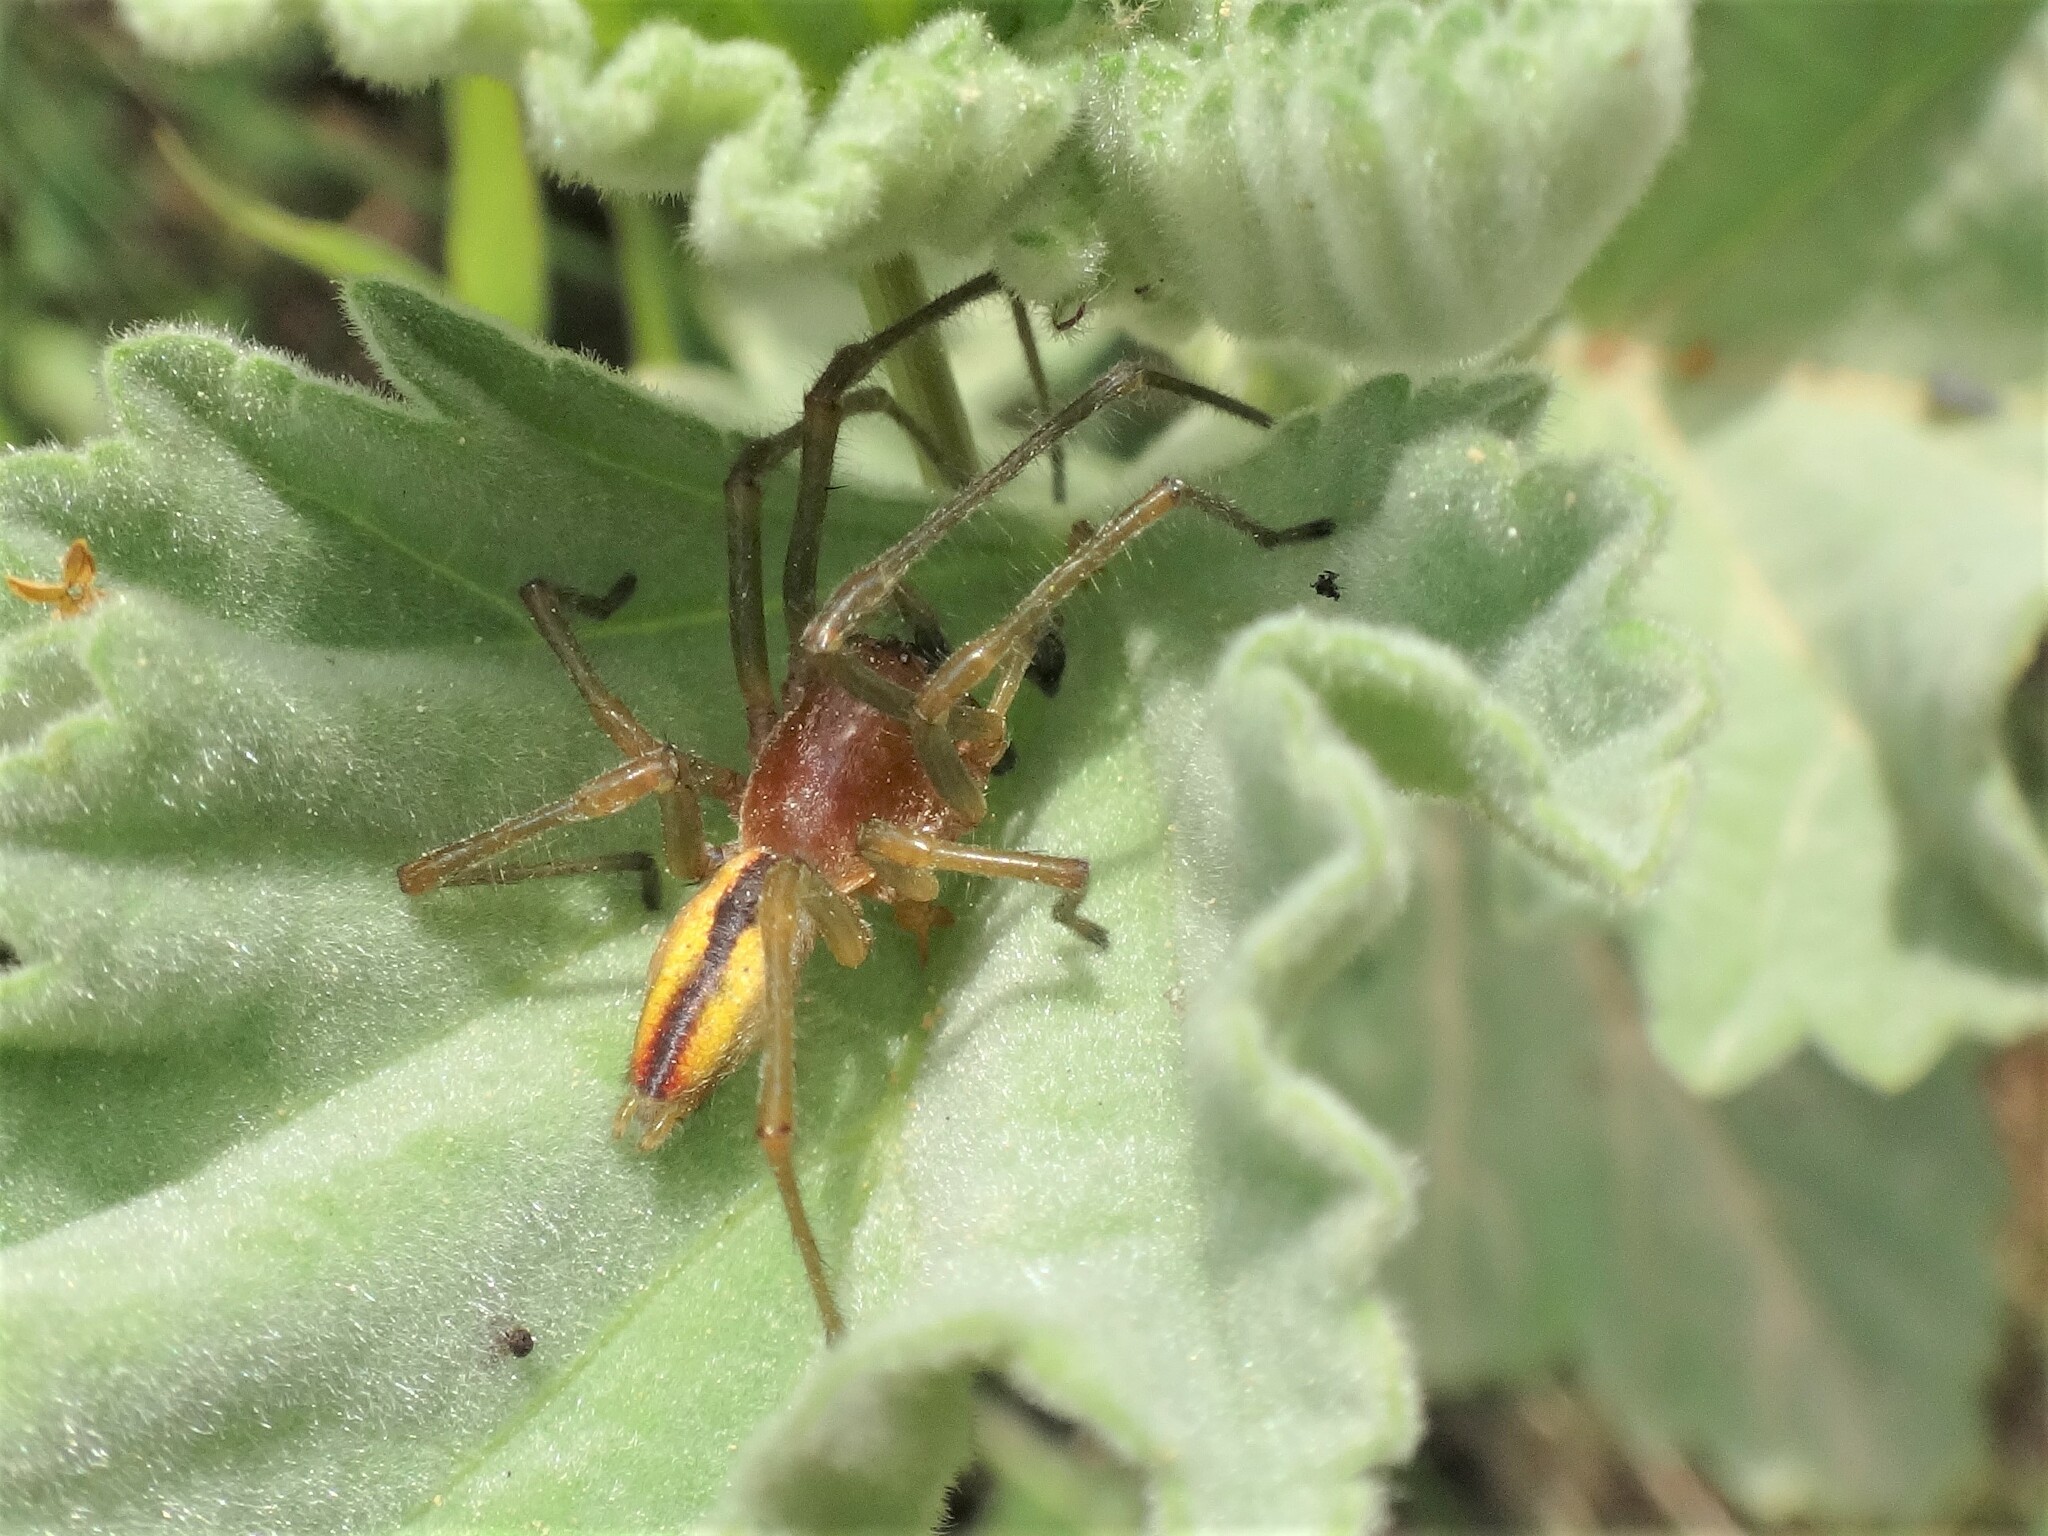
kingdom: Animalia
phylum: Arthropoda
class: Arachnida
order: Araneae
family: Cheiracanthiidae
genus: Cheiracanthium
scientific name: Cheiracanthium erraticum
